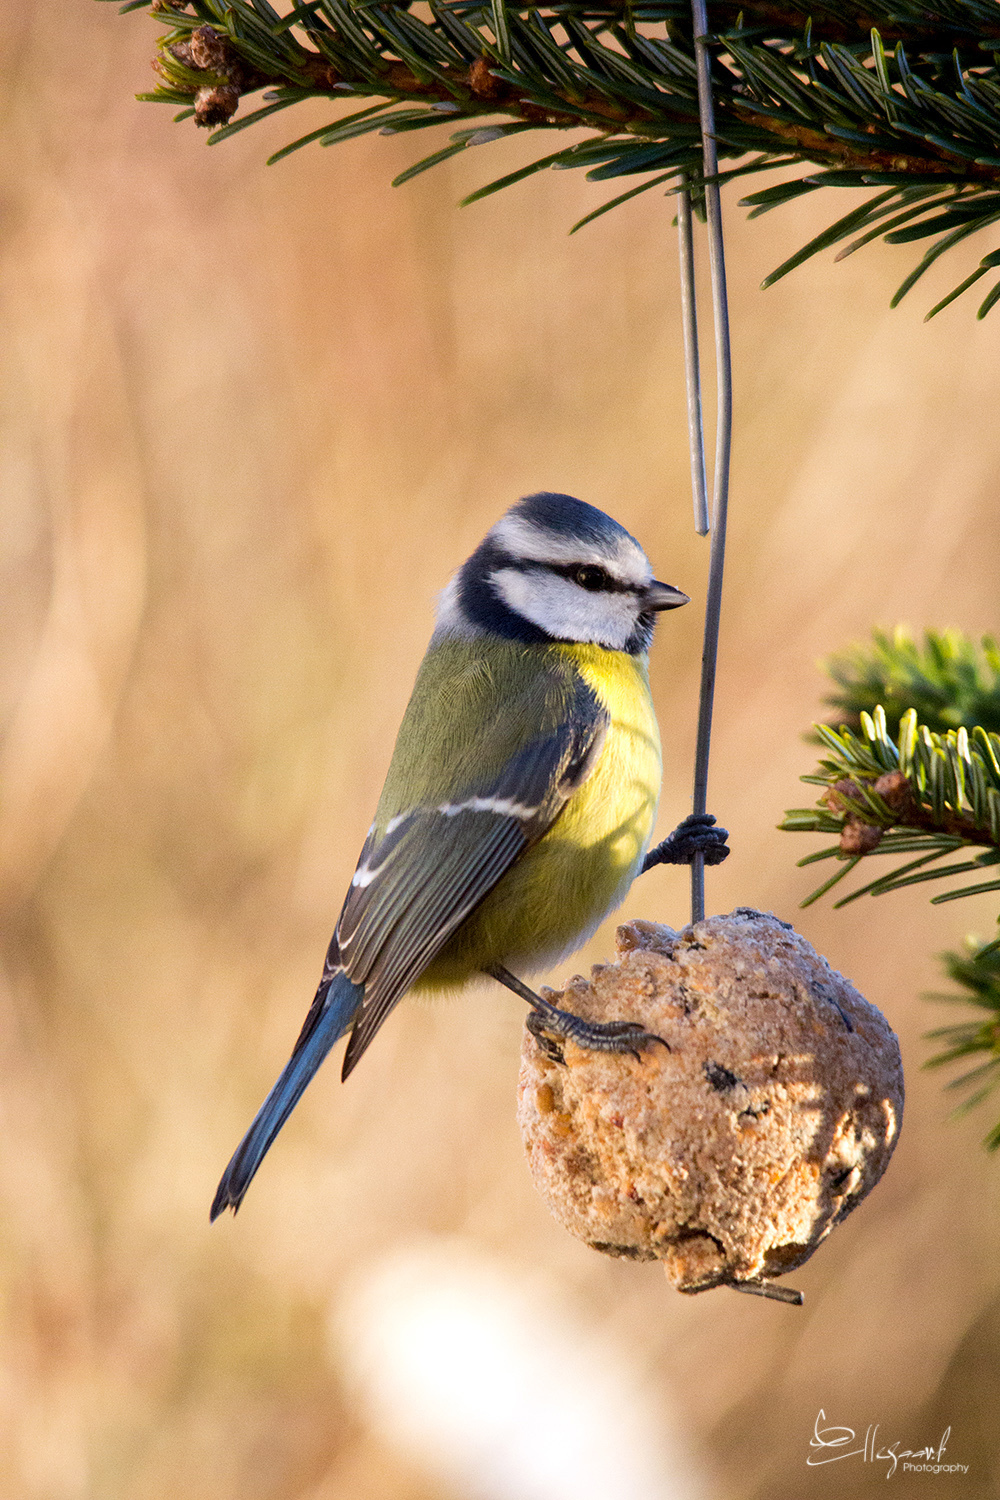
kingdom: Animalia
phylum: Chordata
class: Aves
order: Passeriformes
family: Paridae
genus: Cyanistes
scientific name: Cyanistes caeruleus
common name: Eurasian blue tit
